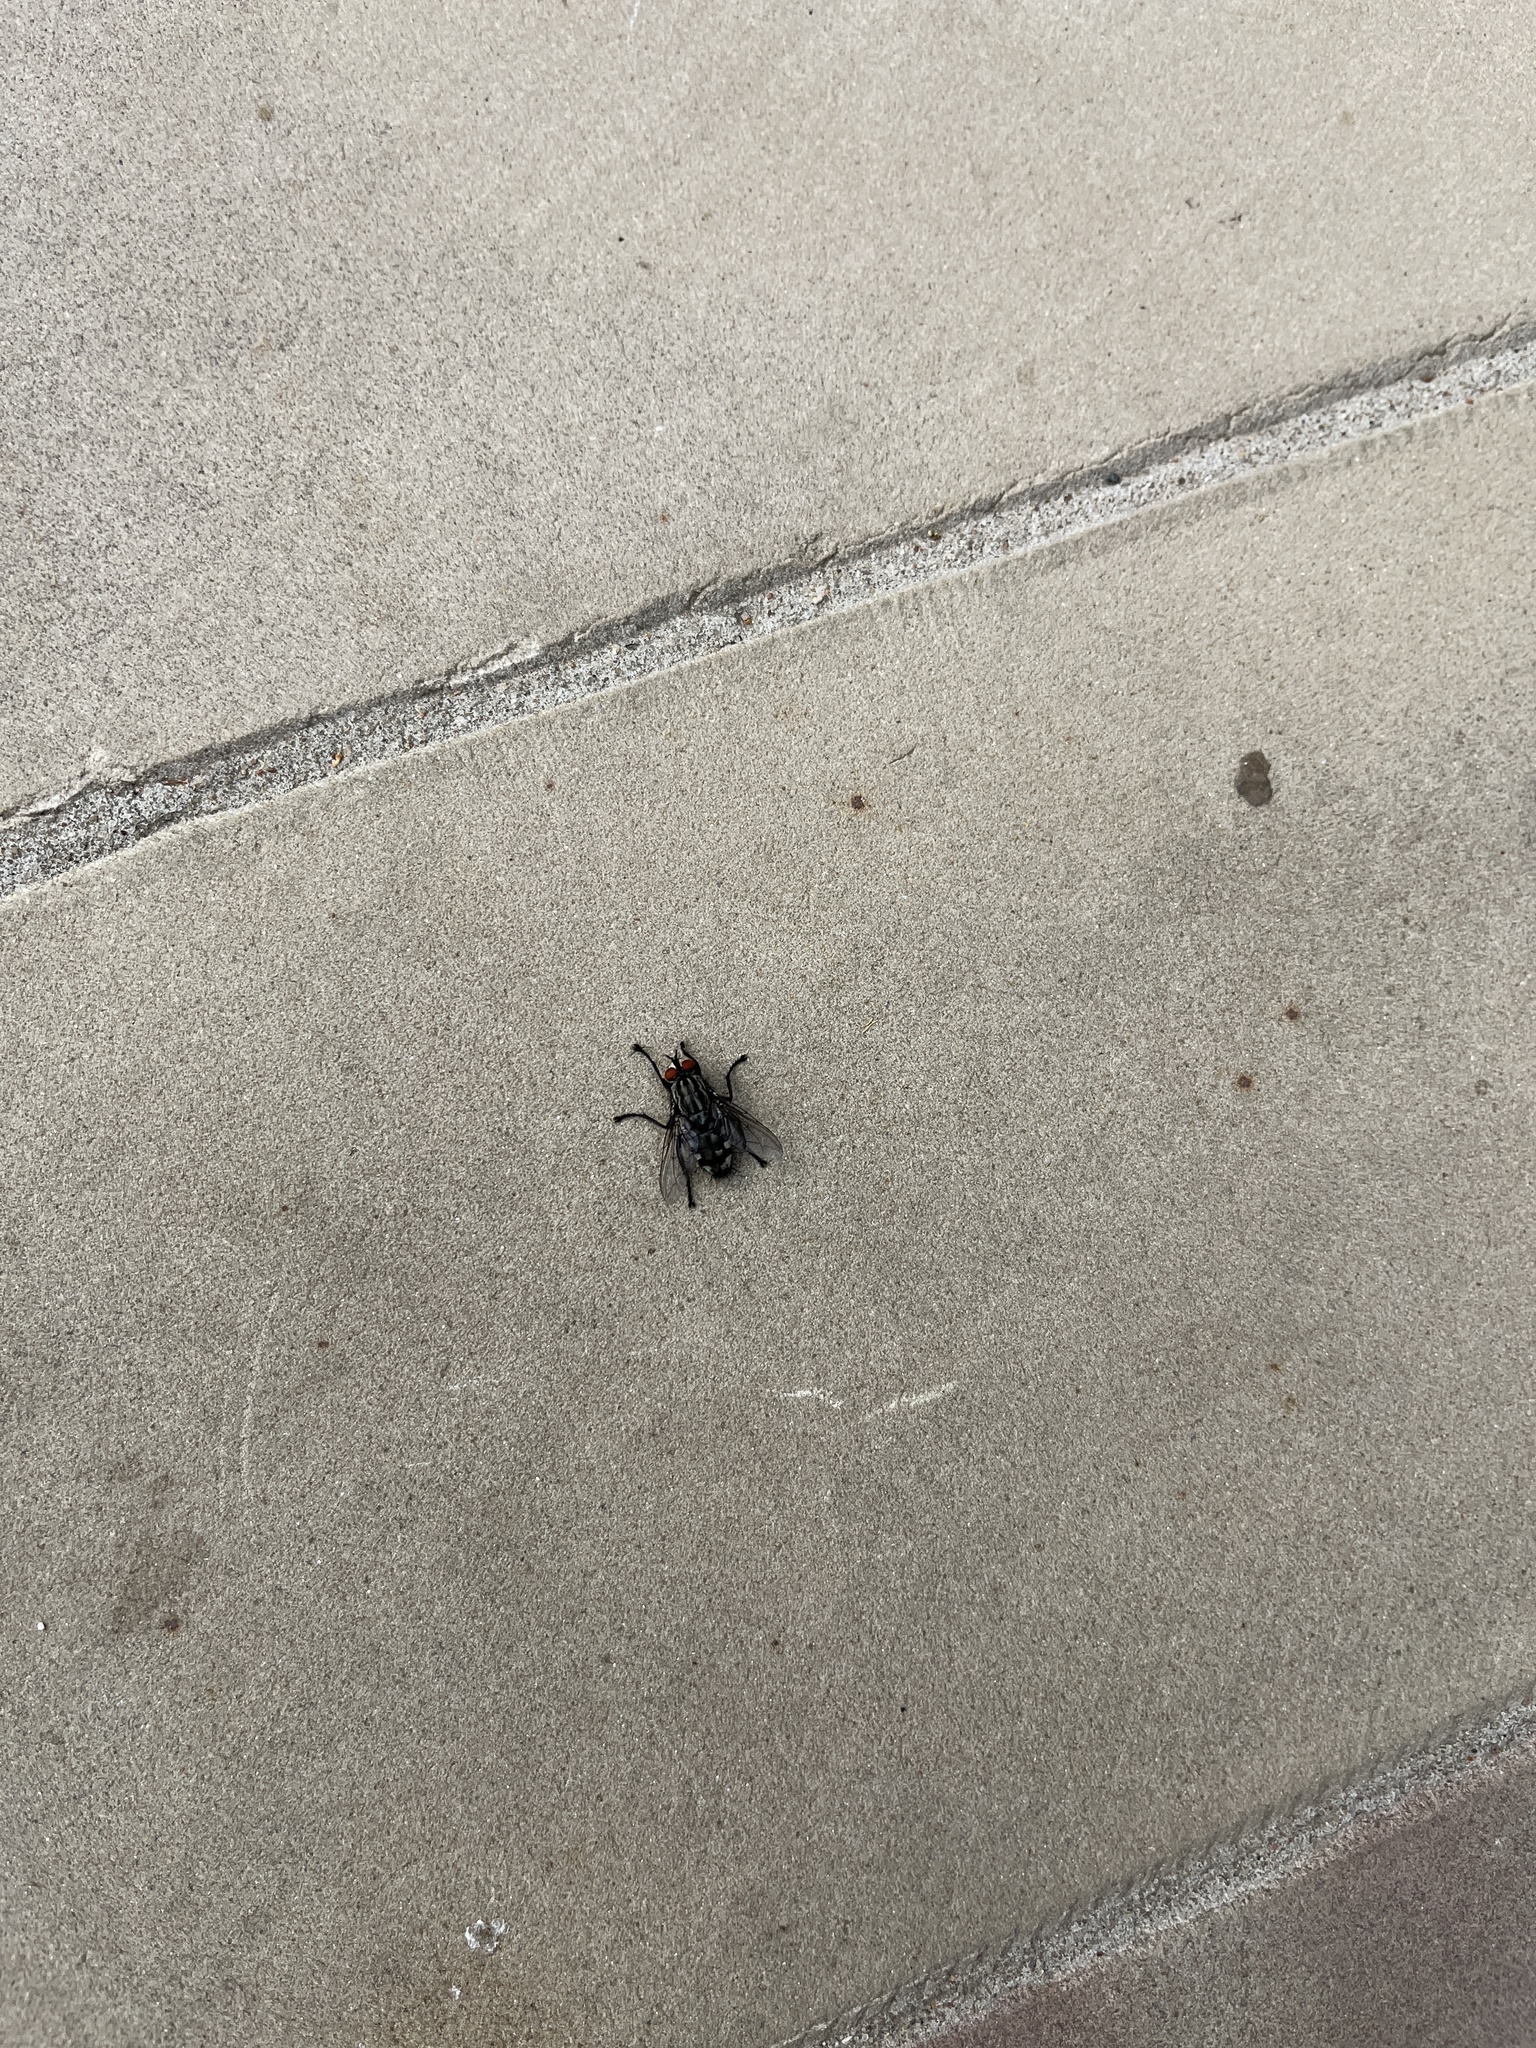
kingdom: Animalia
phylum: Arthropoda
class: Insecta
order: Diptera
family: Sarcophagidae
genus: Sarcophaga
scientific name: Sarcophaga
